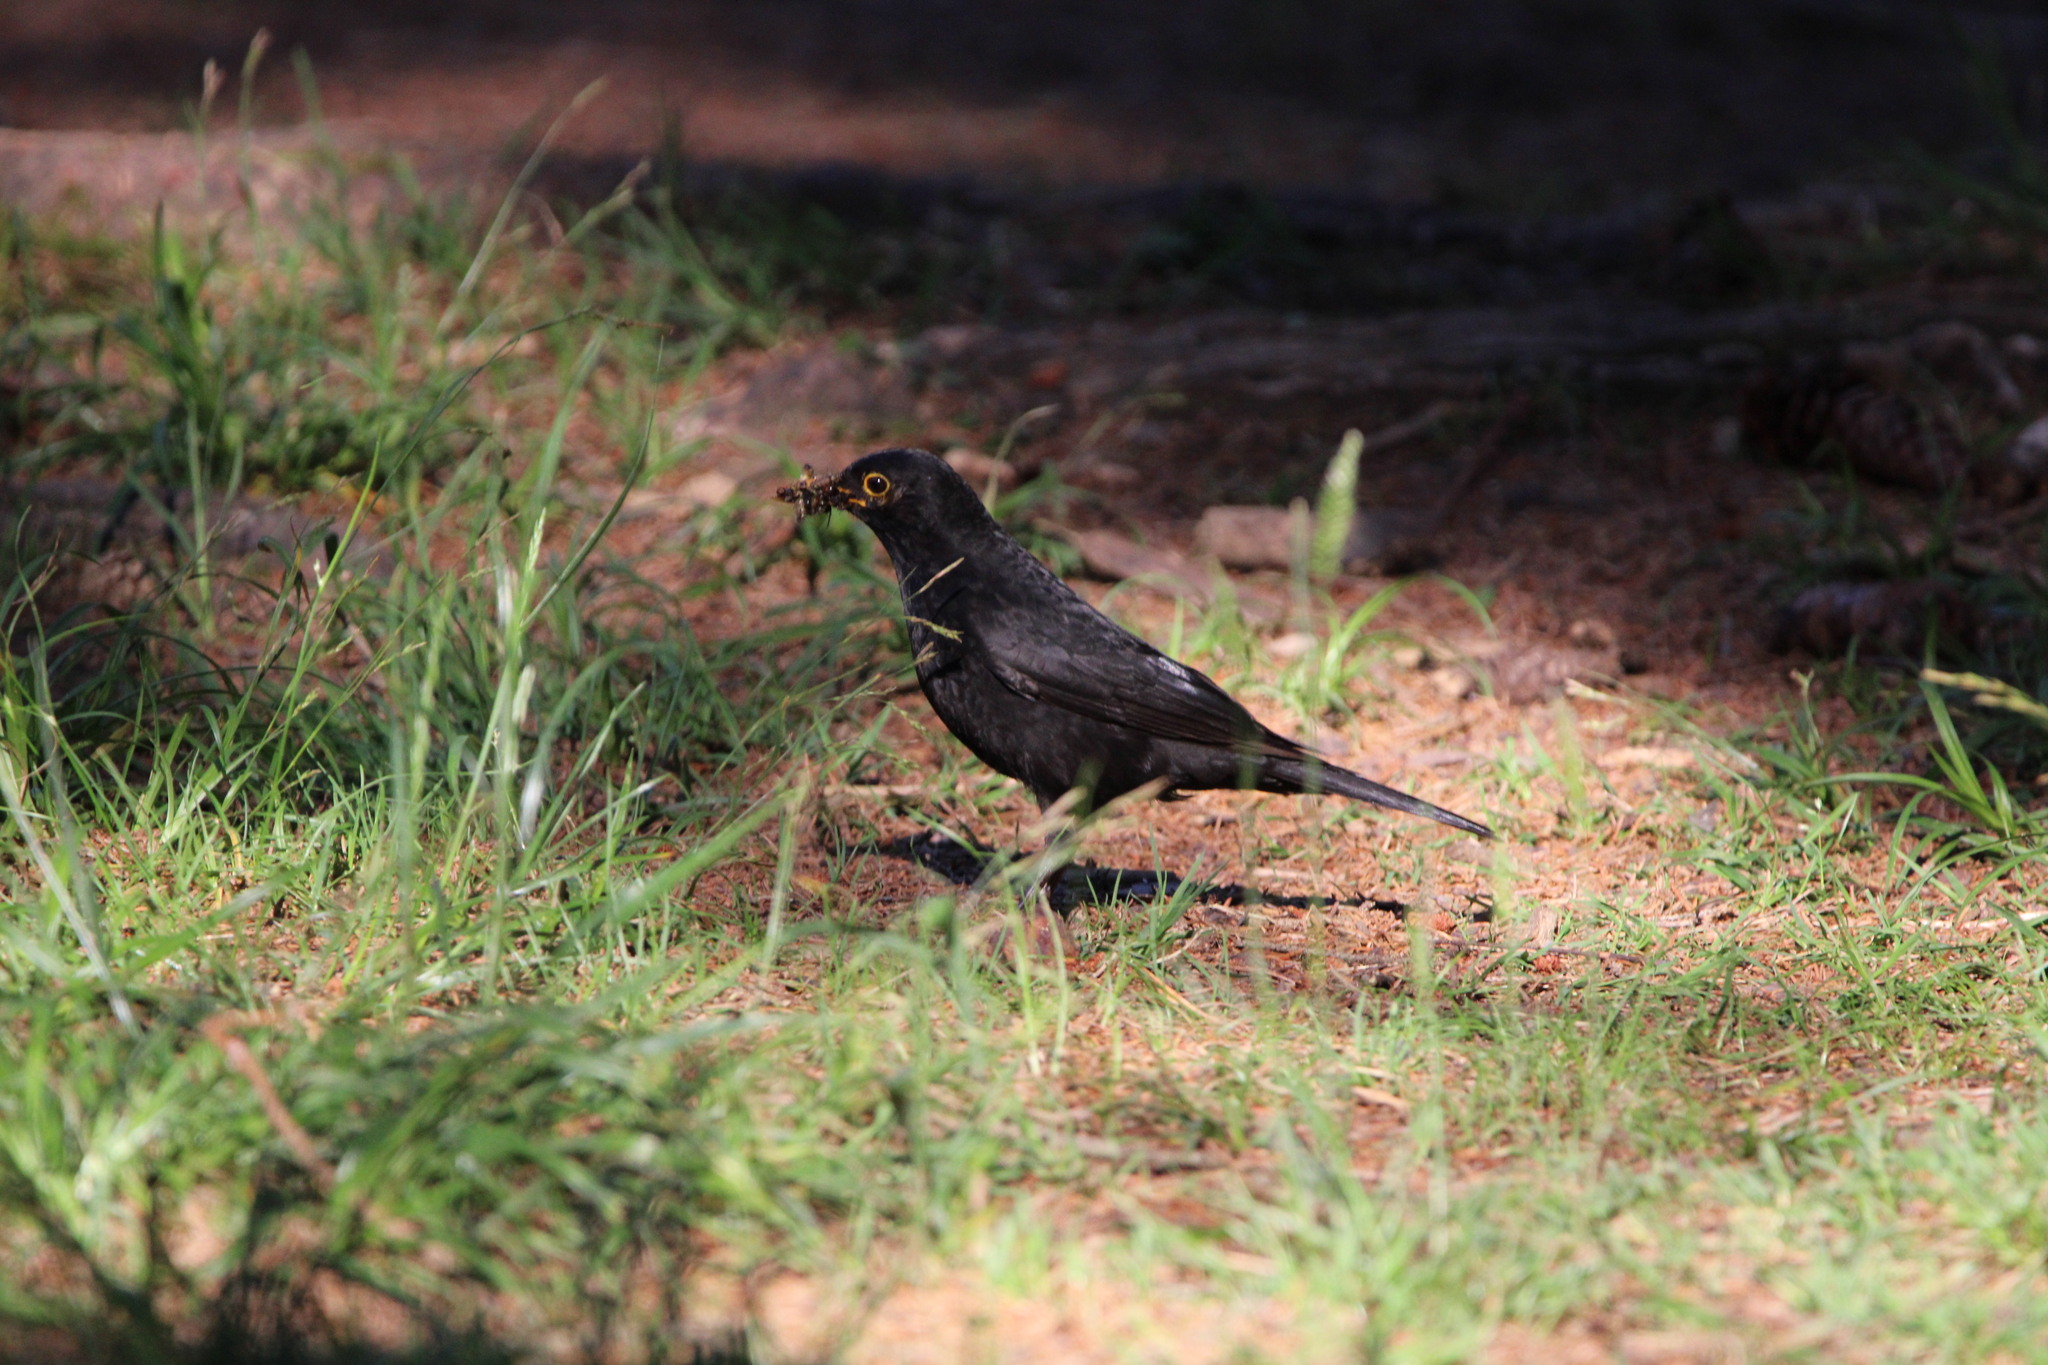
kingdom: Animalia
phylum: Chordata
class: Aves
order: Passeriformes
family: Turdidae
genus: Turdus
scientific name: Turdus merula
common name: Common blackbird
